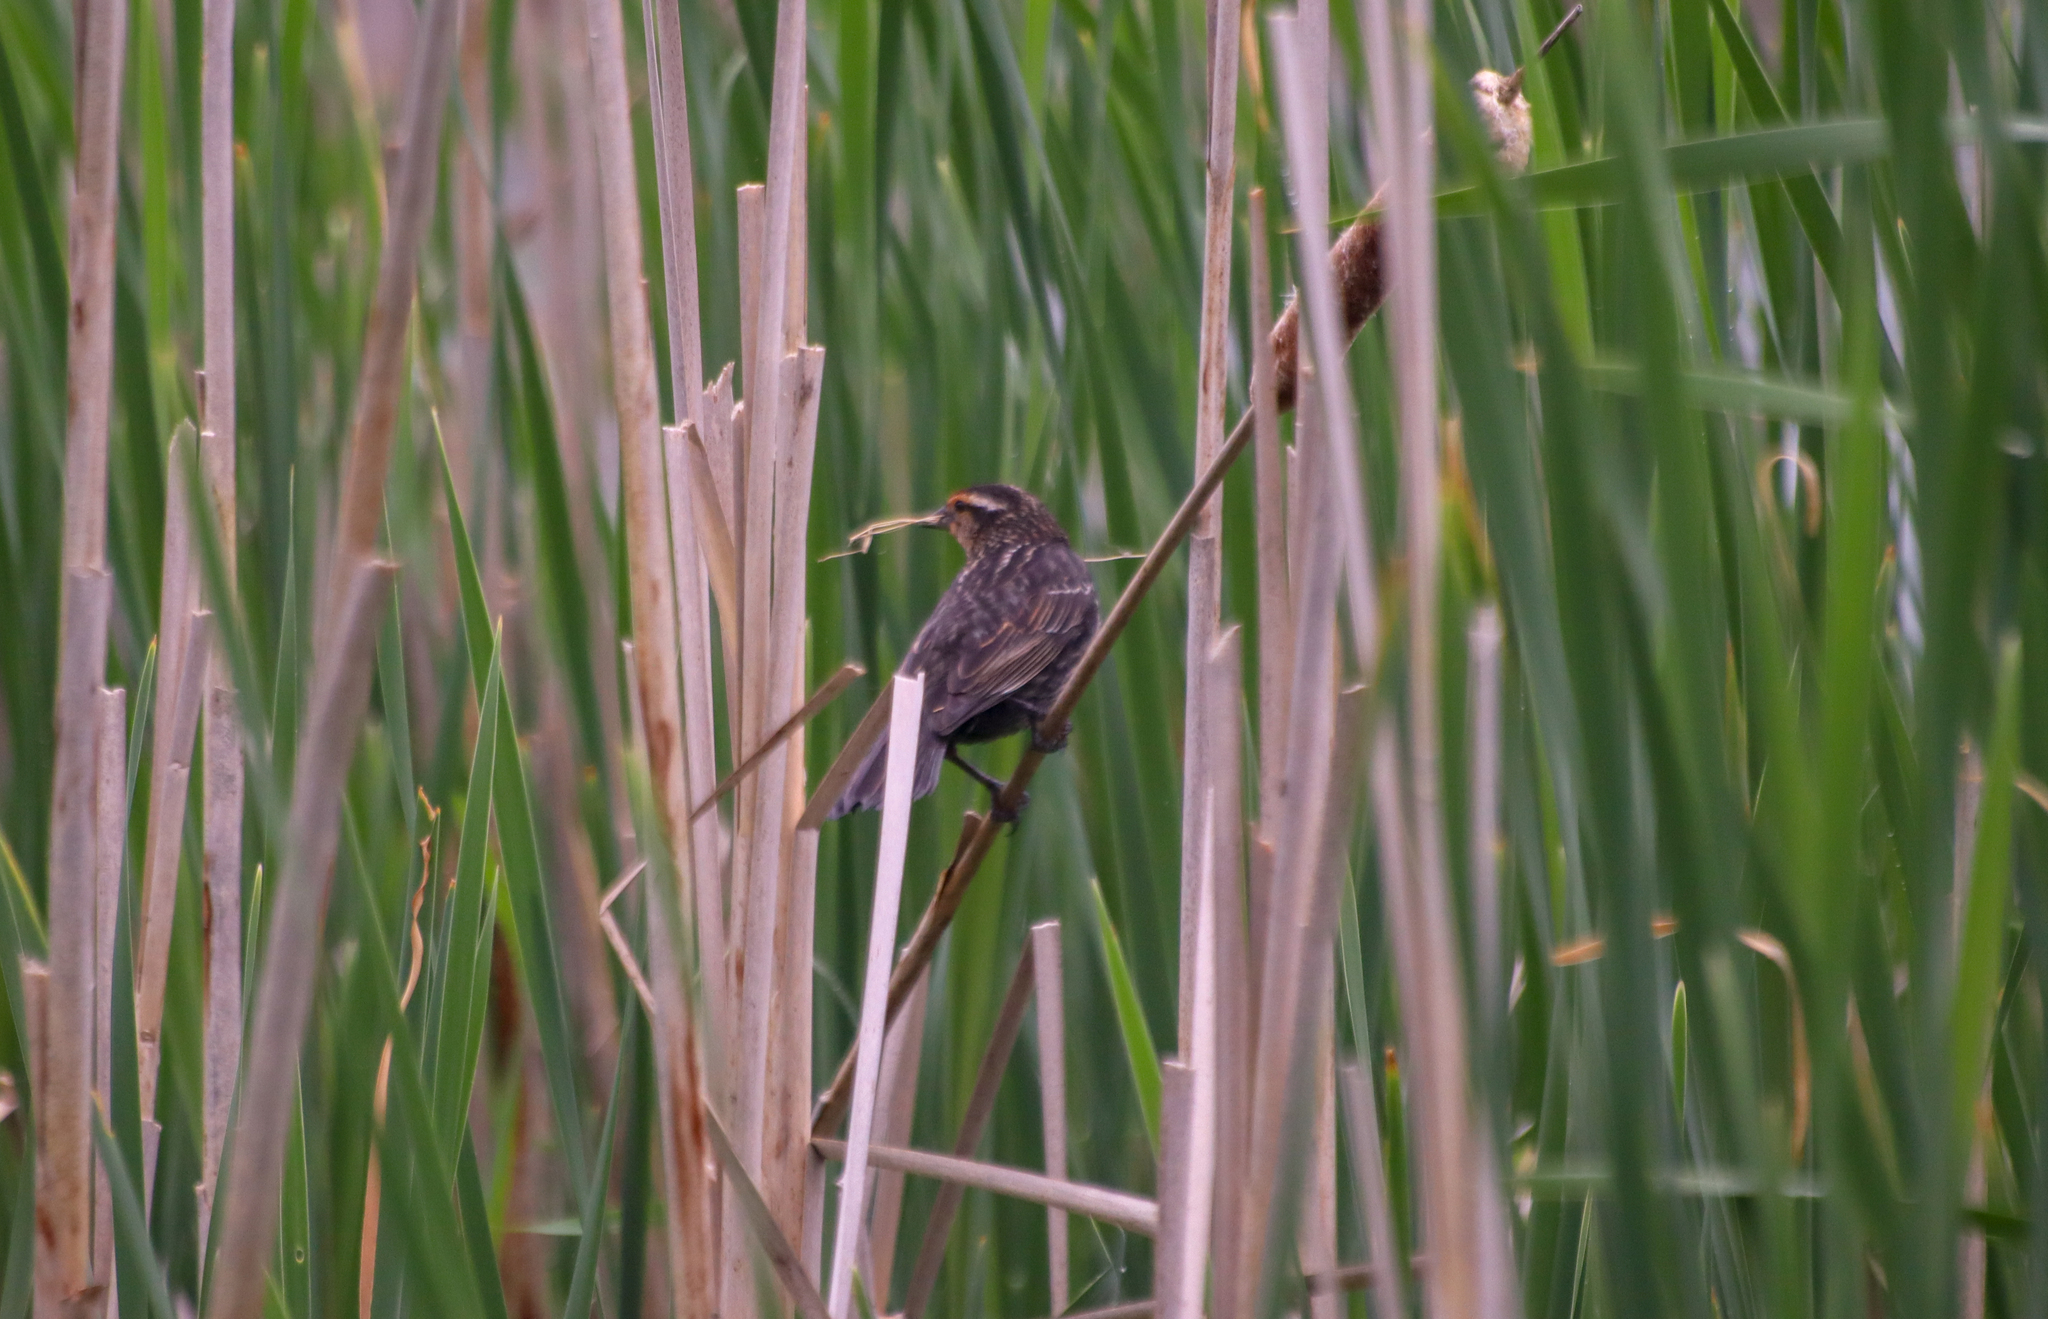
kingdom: Animalia
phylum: Chordata
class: Aves
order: Passeriformes
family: Icteridae
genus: Agelaius
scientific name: Agelaius phoeniceus
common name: Red-winged blackbird
